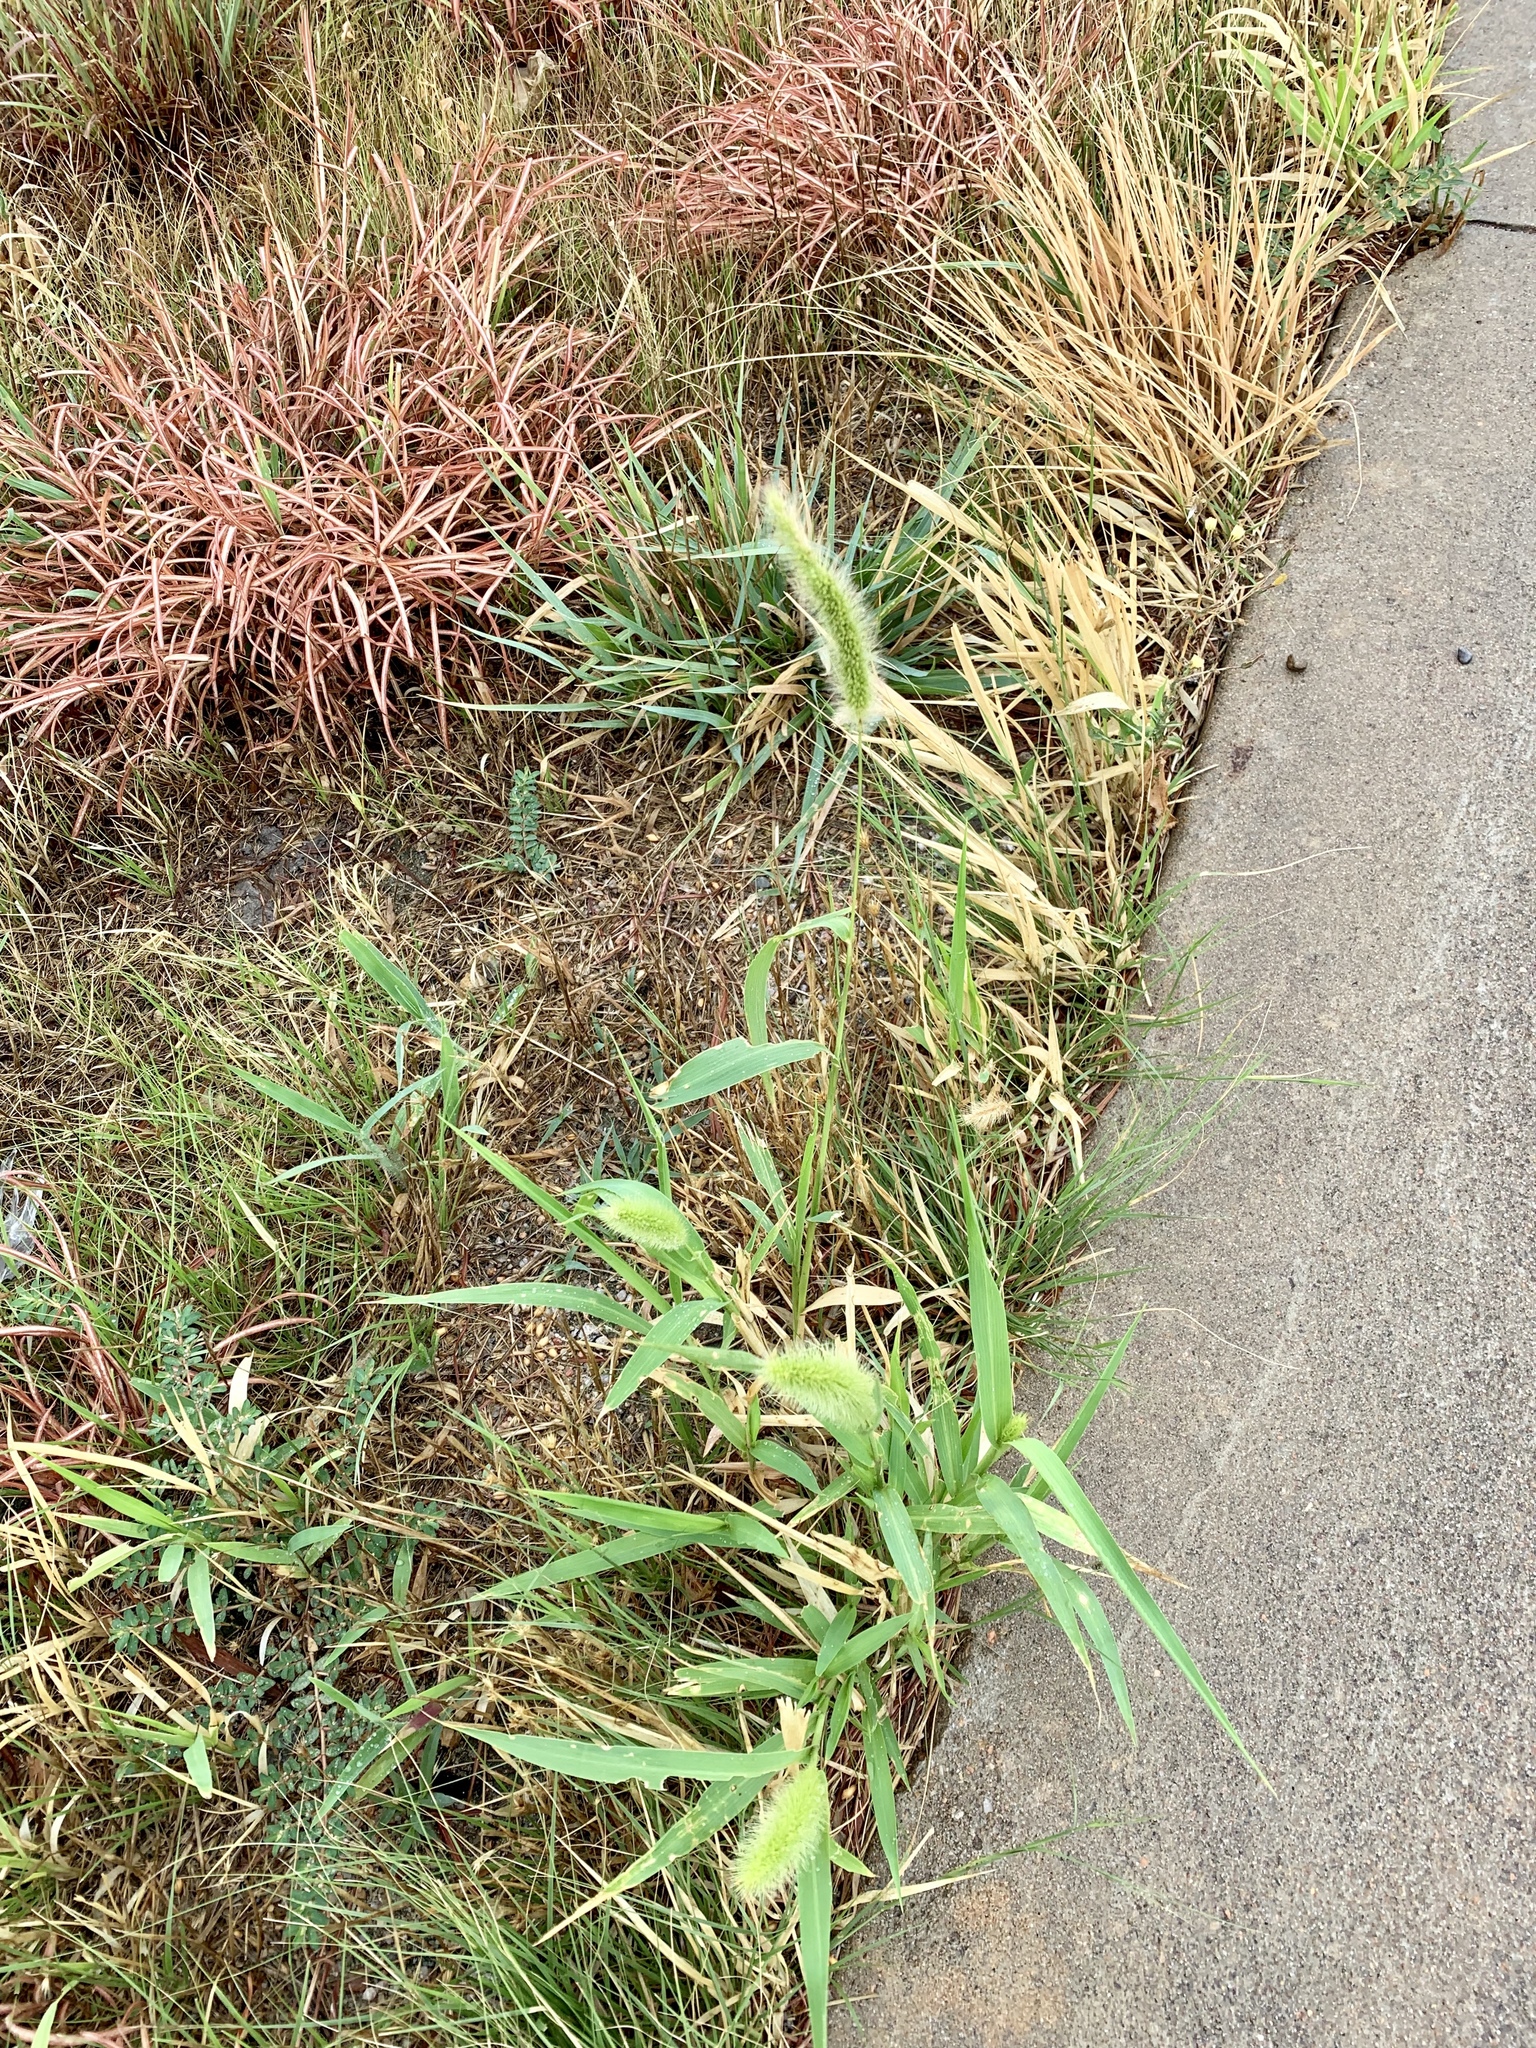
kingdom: Plantae
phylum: Tracheophyta
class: Liliopsida
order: Poales
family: Poaceae
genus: Setaria
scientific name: Setaria viridis
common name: Green bristlegrass
